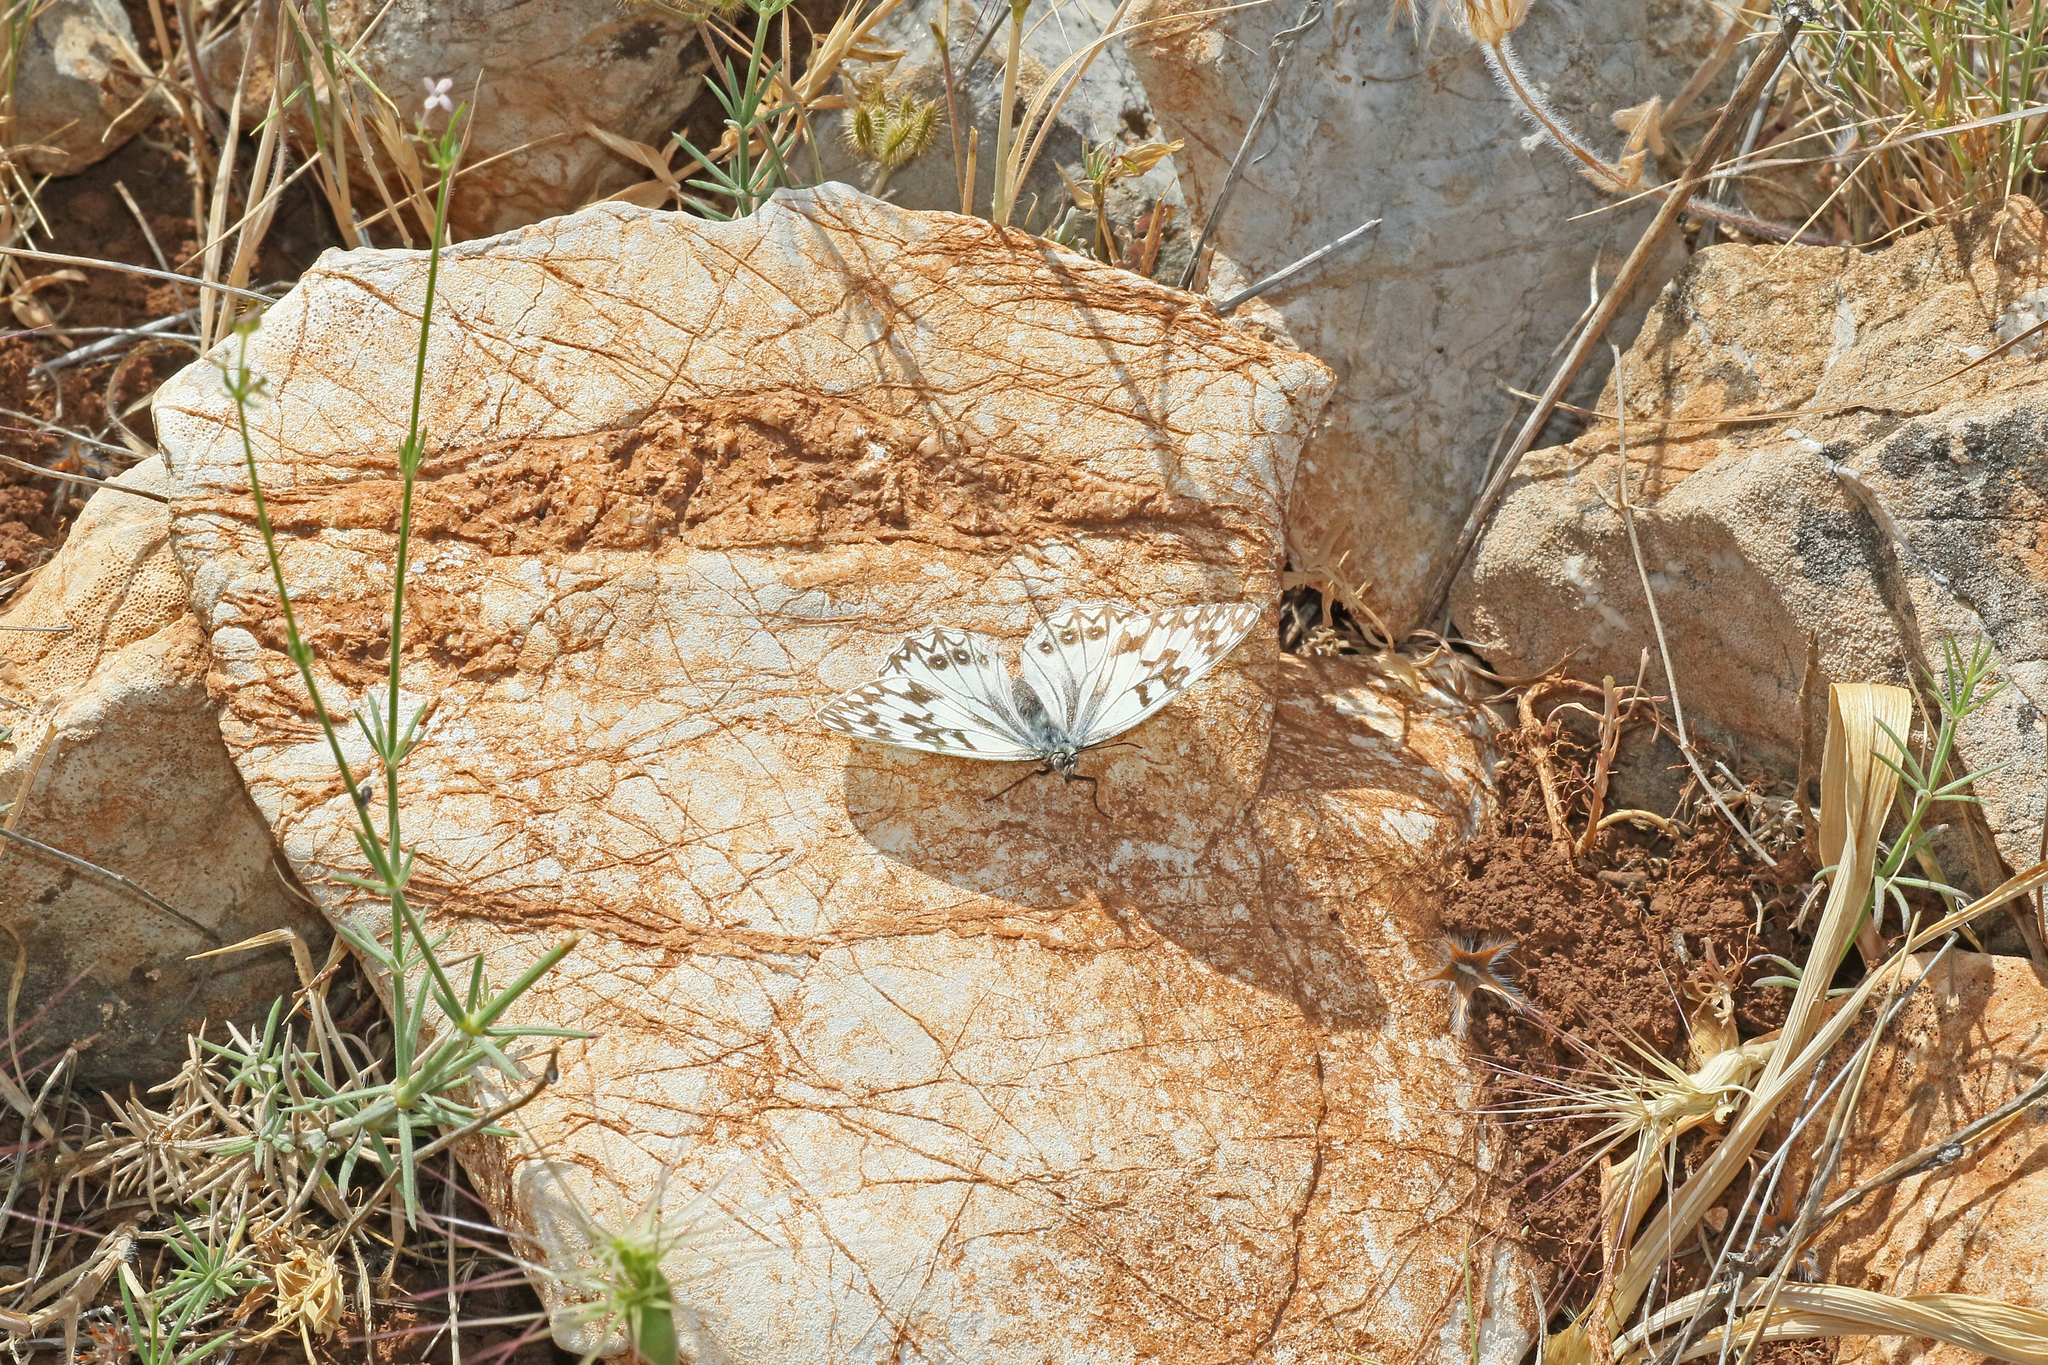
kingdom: Animalia
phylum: Arthropoda
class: Insecta
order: Lepidoptera
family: Nymphalidae
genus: Melanargia
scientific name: Melanargia occitanica
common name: Western marbled white
